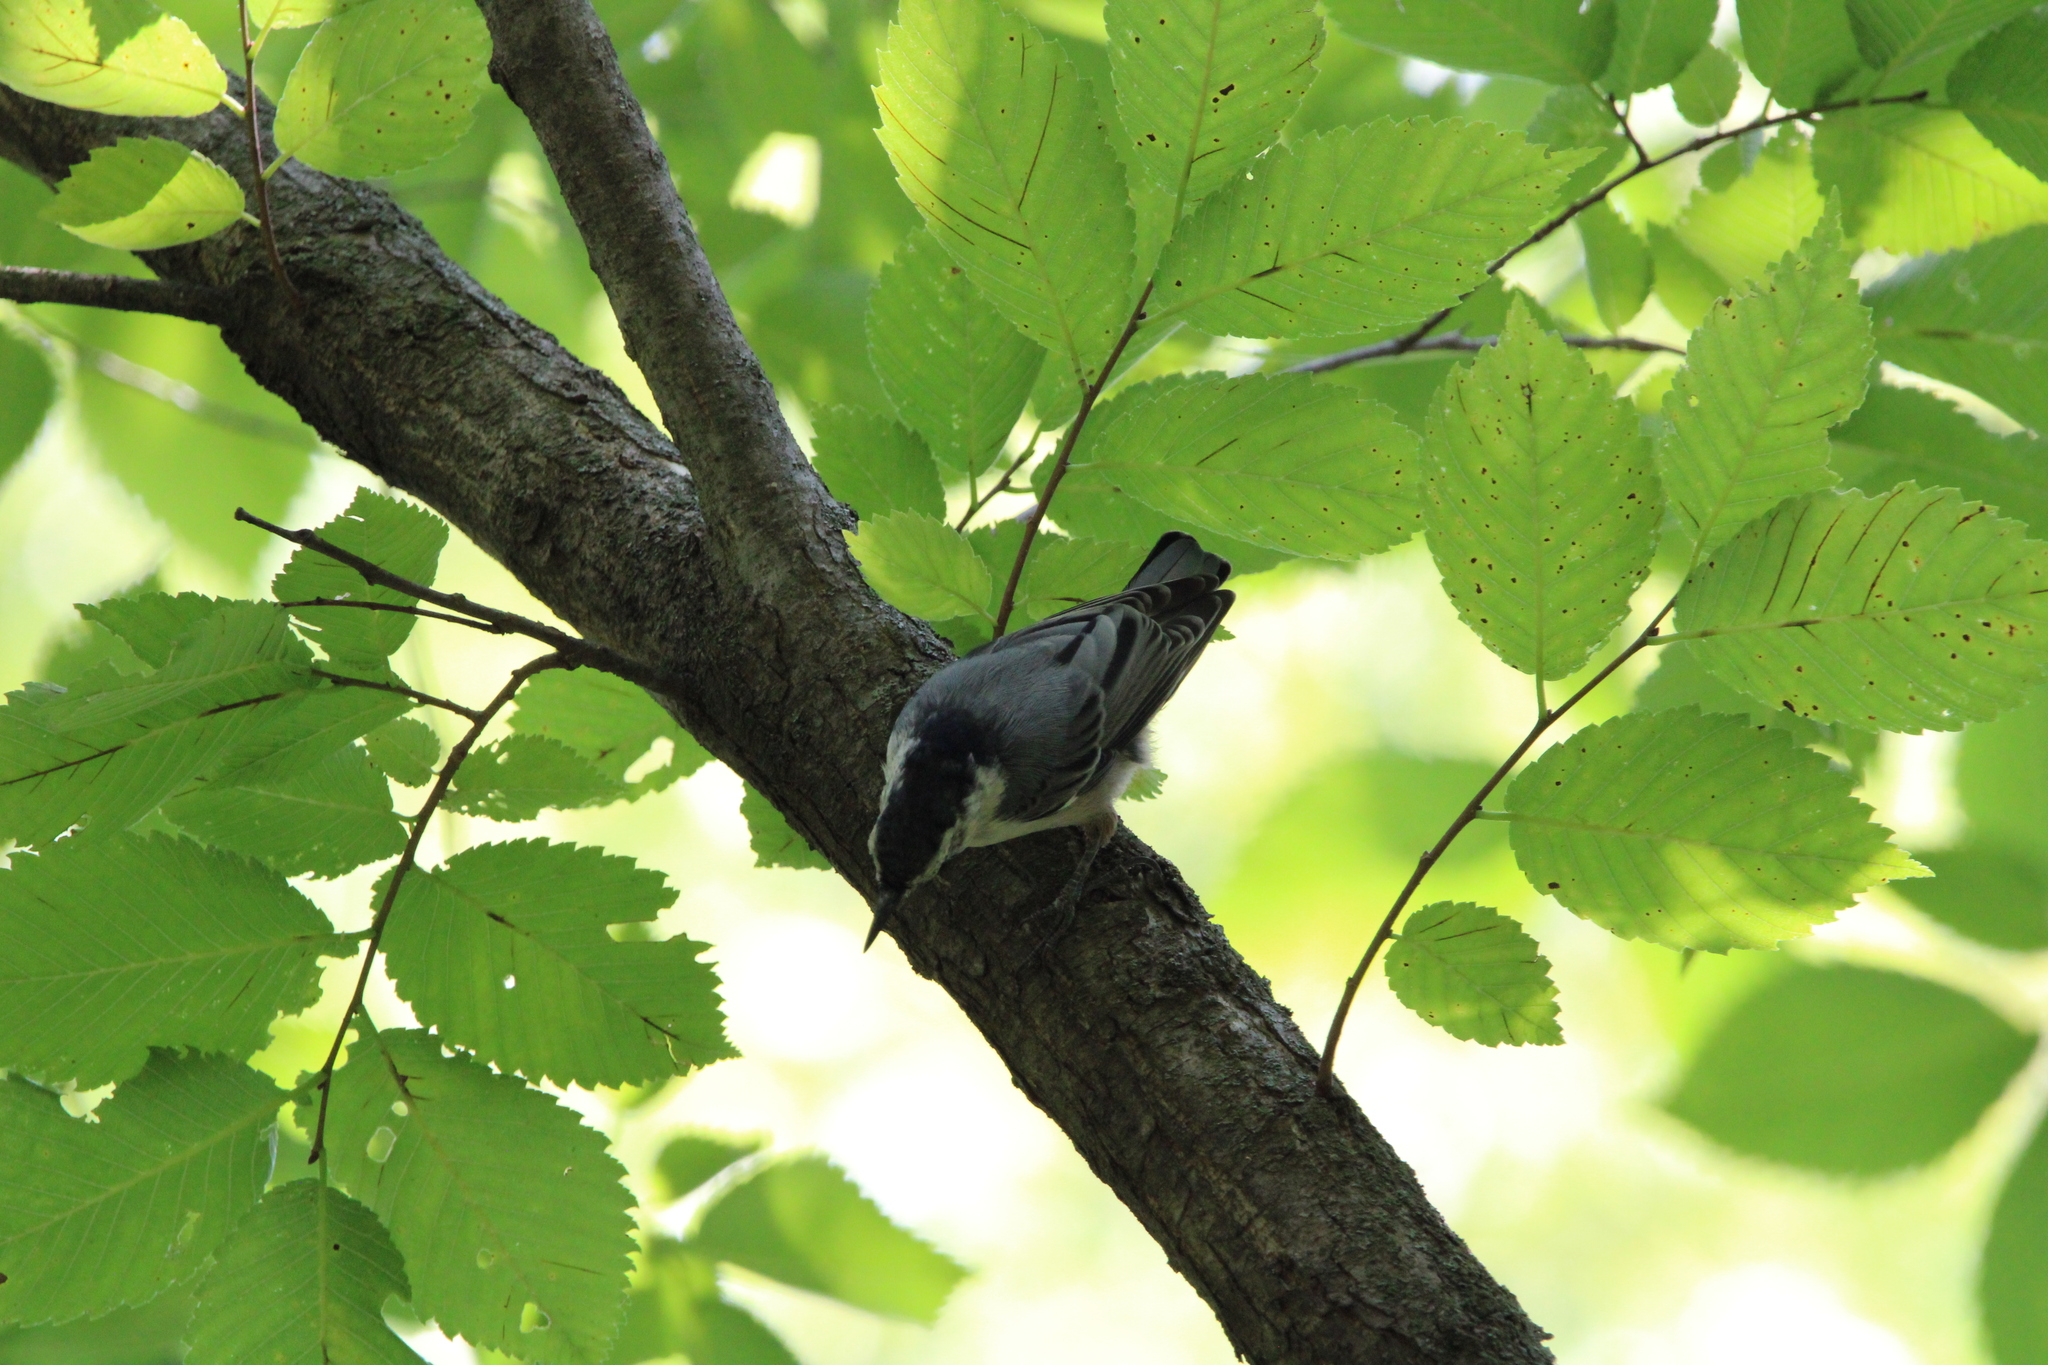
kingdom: Animalia
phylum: Chordata
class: Aves
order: Passeriformes
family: Sittidae
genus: Sitta
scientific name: Sitta carolinensis
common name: White-breasted nuthatch
